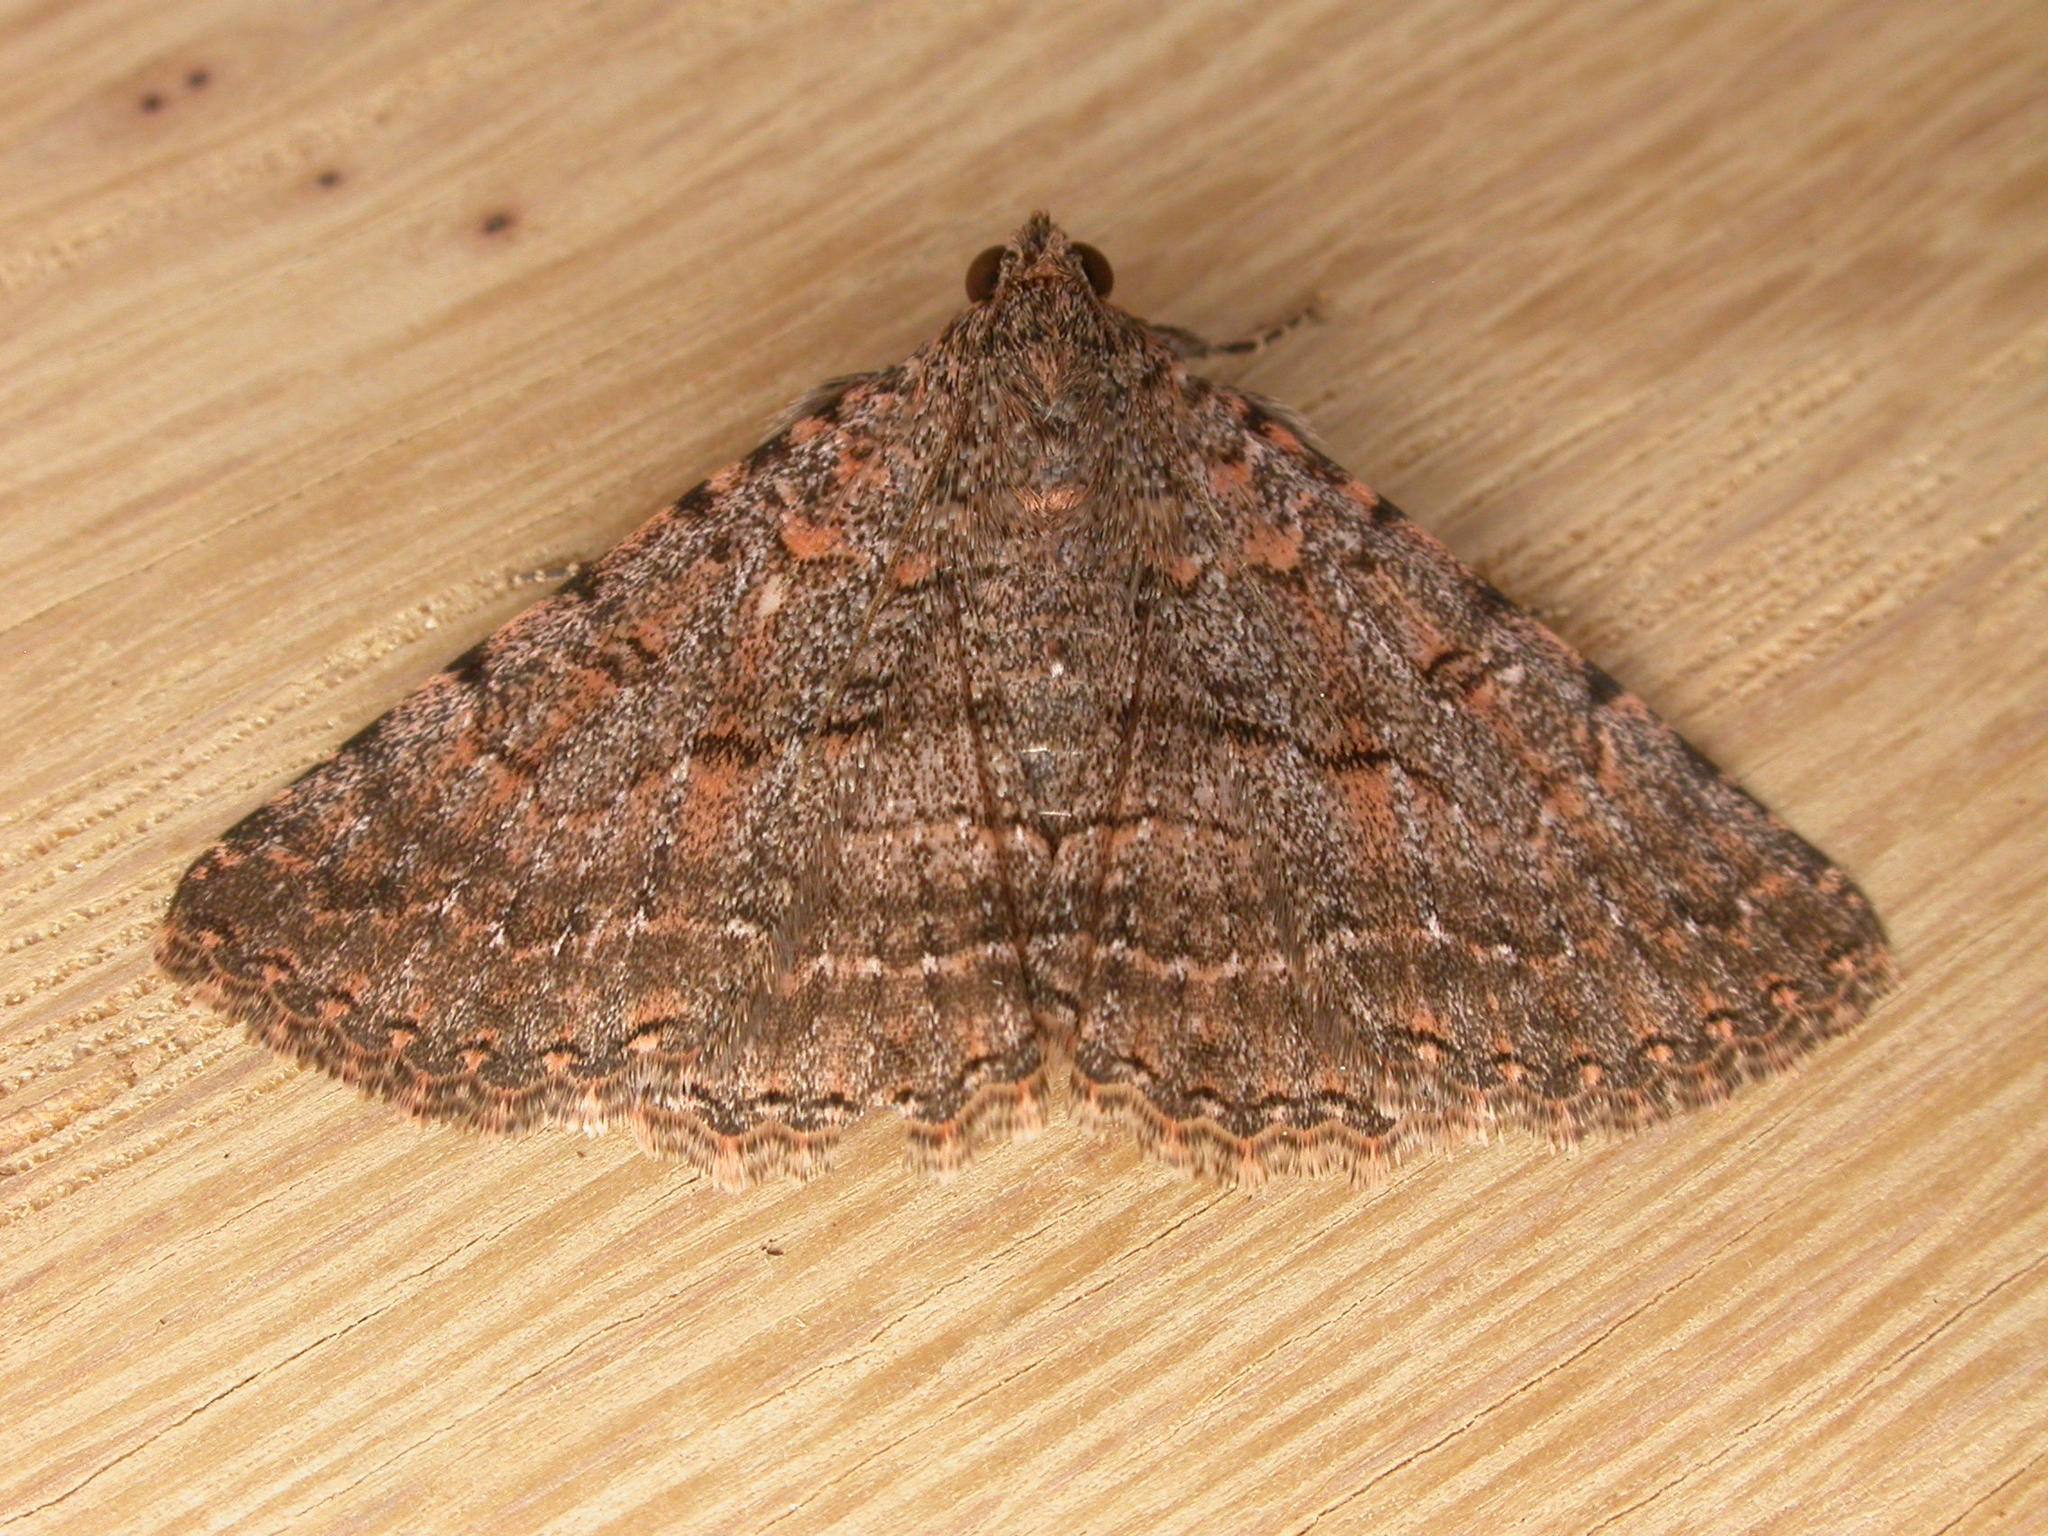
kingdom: Animalia
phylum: Arthropoda
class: Insecta
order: Lepidoptera
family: Erebidae
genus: Diatenes
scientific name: Diatenes igneipicta
